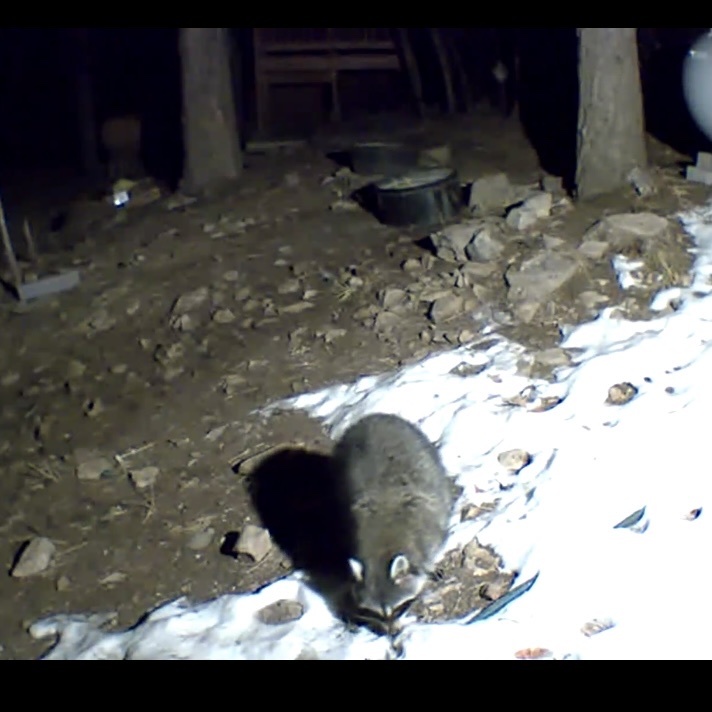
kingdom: Animalia
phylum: Chordata
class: Mammalia
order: Carnivora
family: Procyonidae
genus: Procyon
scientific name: Procyon lotor
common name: Raccoon
